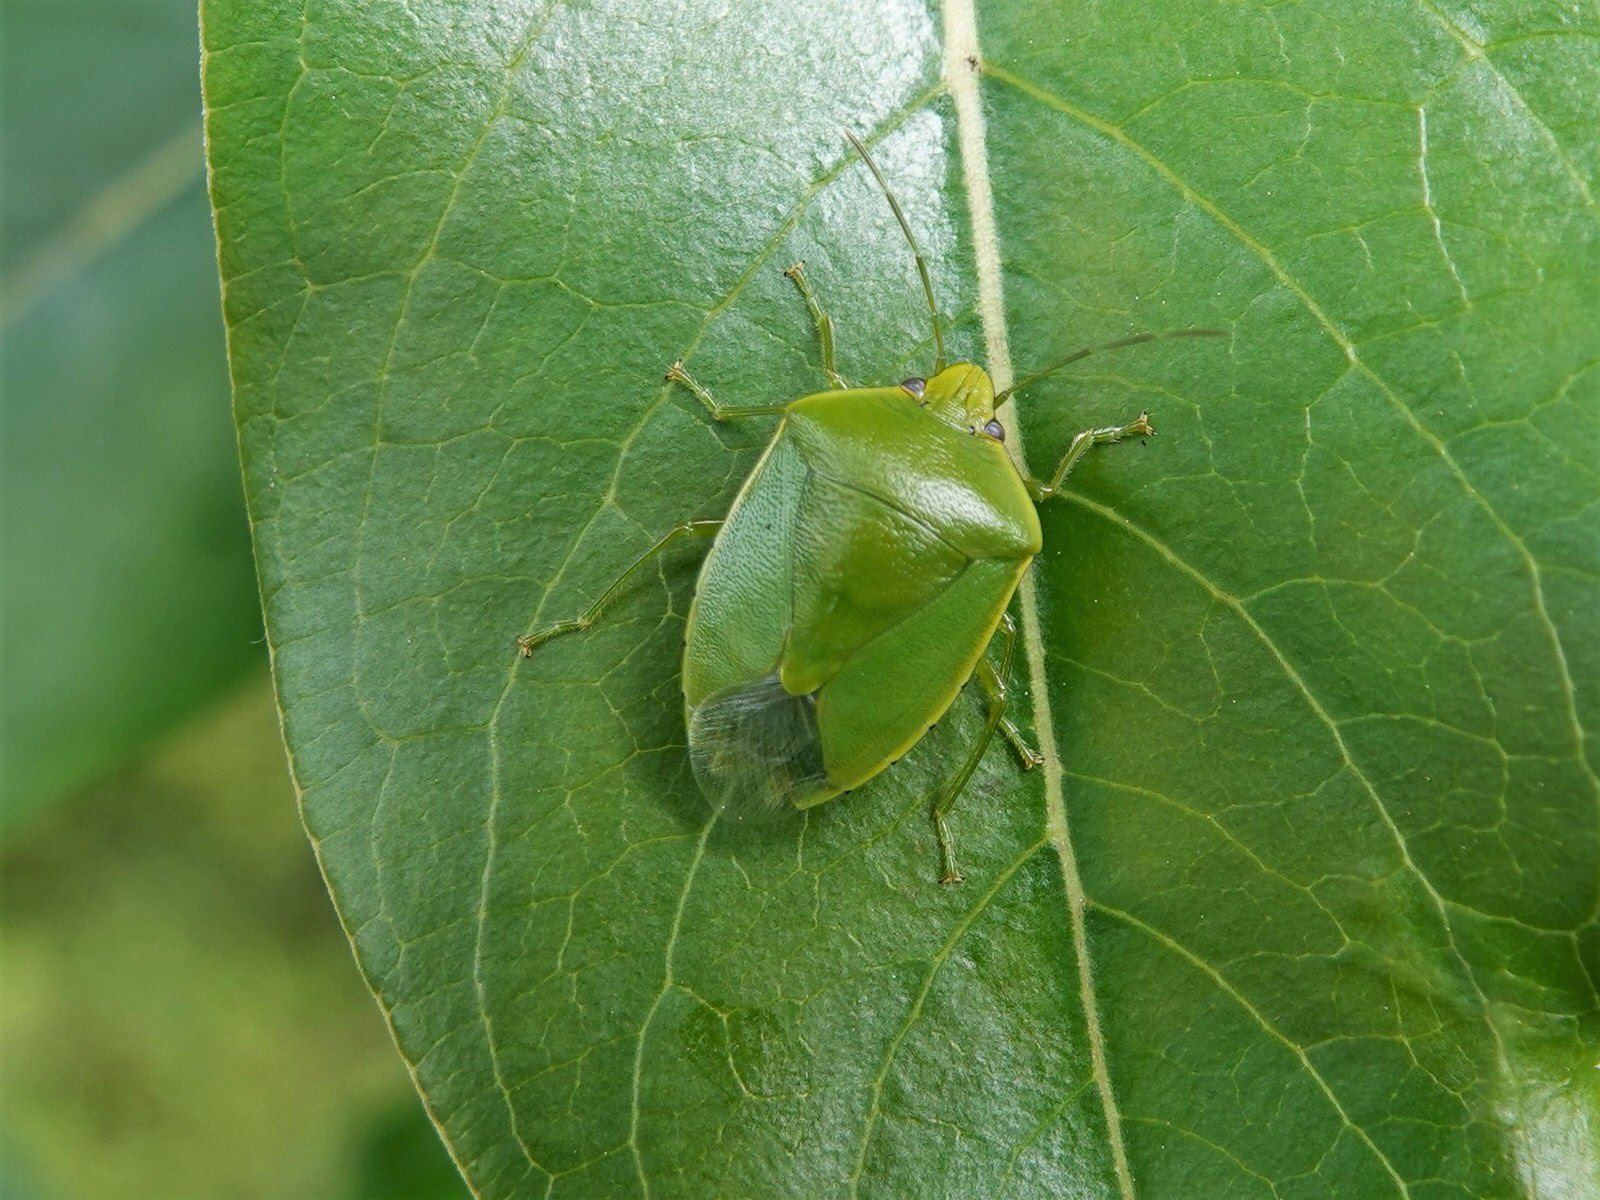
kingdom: Animalia
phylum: Arthropoda
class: Insecta
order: Hemiptera
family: Pentatomidae
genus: Glaucias
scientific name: Glaucias amyota
